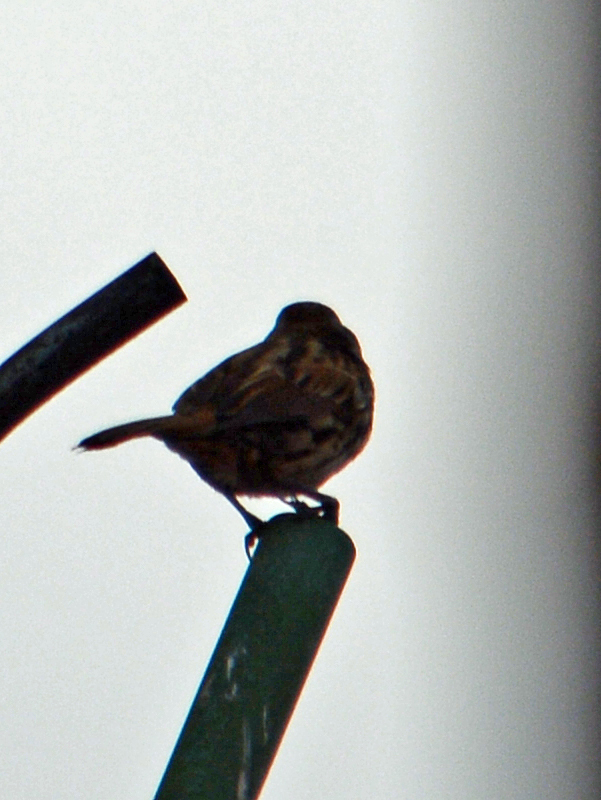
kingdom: Animalia
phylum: Chordata
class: Aves
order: Passeriformes
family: Passerellidae
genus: Melospiza
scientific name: Melospiza melodia
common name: Song sparrow
